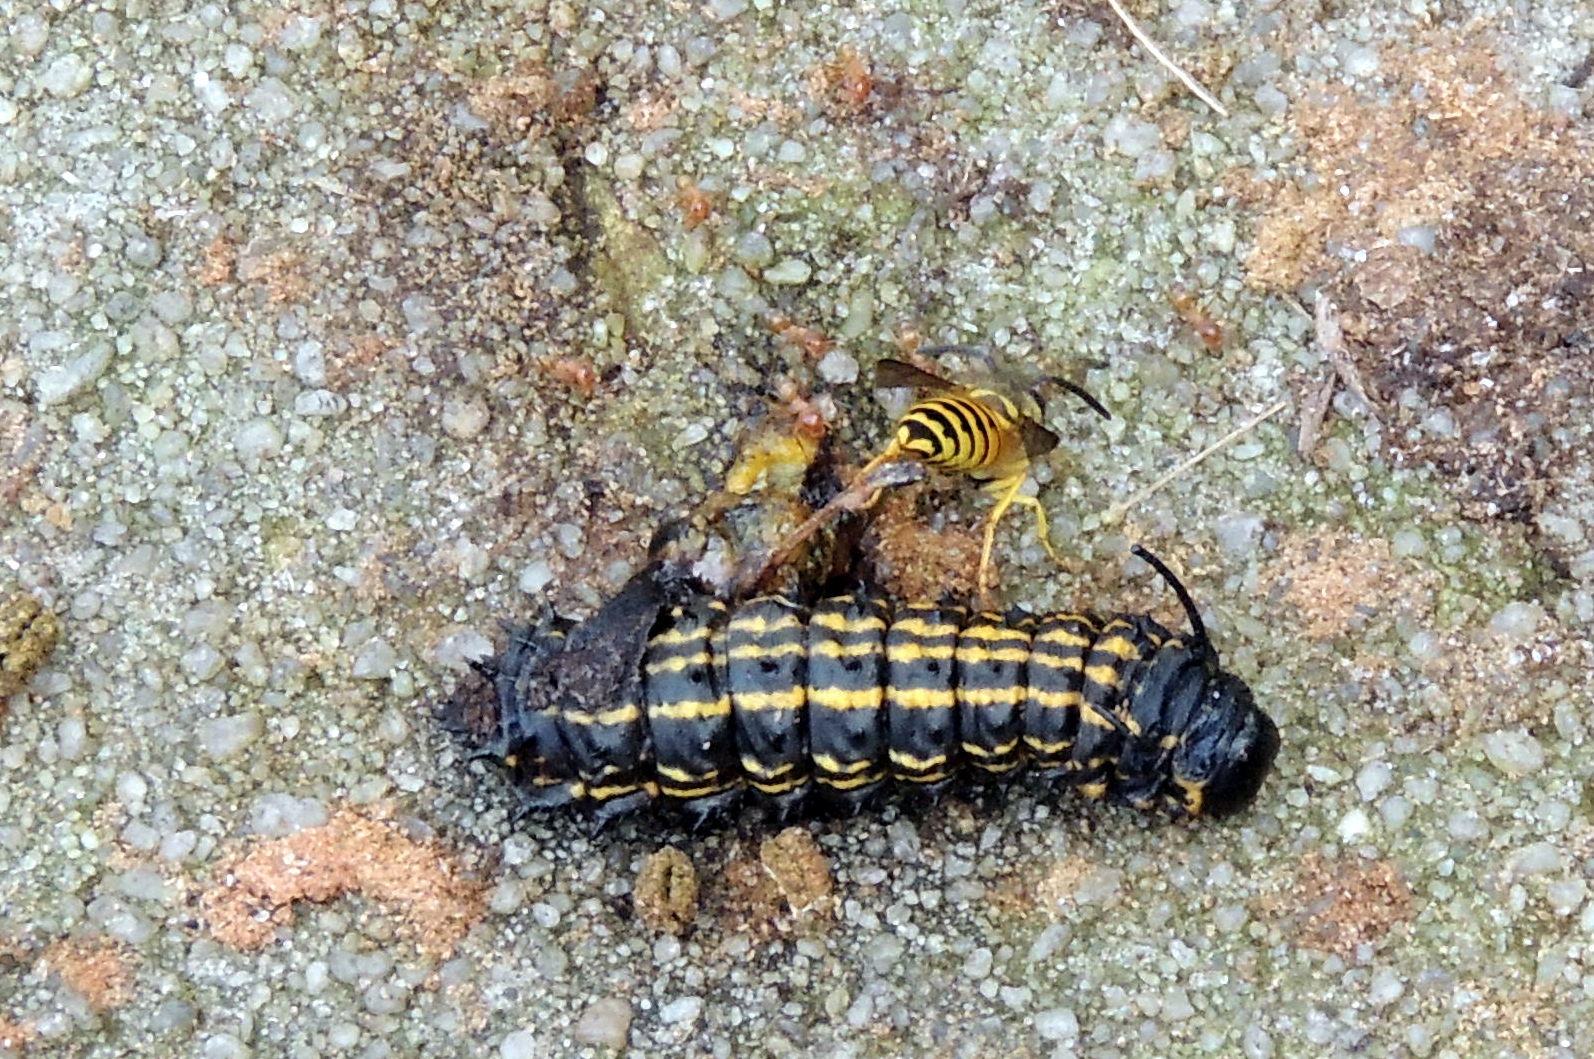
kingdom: Animalia
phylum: Arthropoda
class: Insecta
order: Hymenoptera
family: Vespidae
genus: Vespula
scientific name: Vespula maculifrons
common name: Eastern yellowjacket
